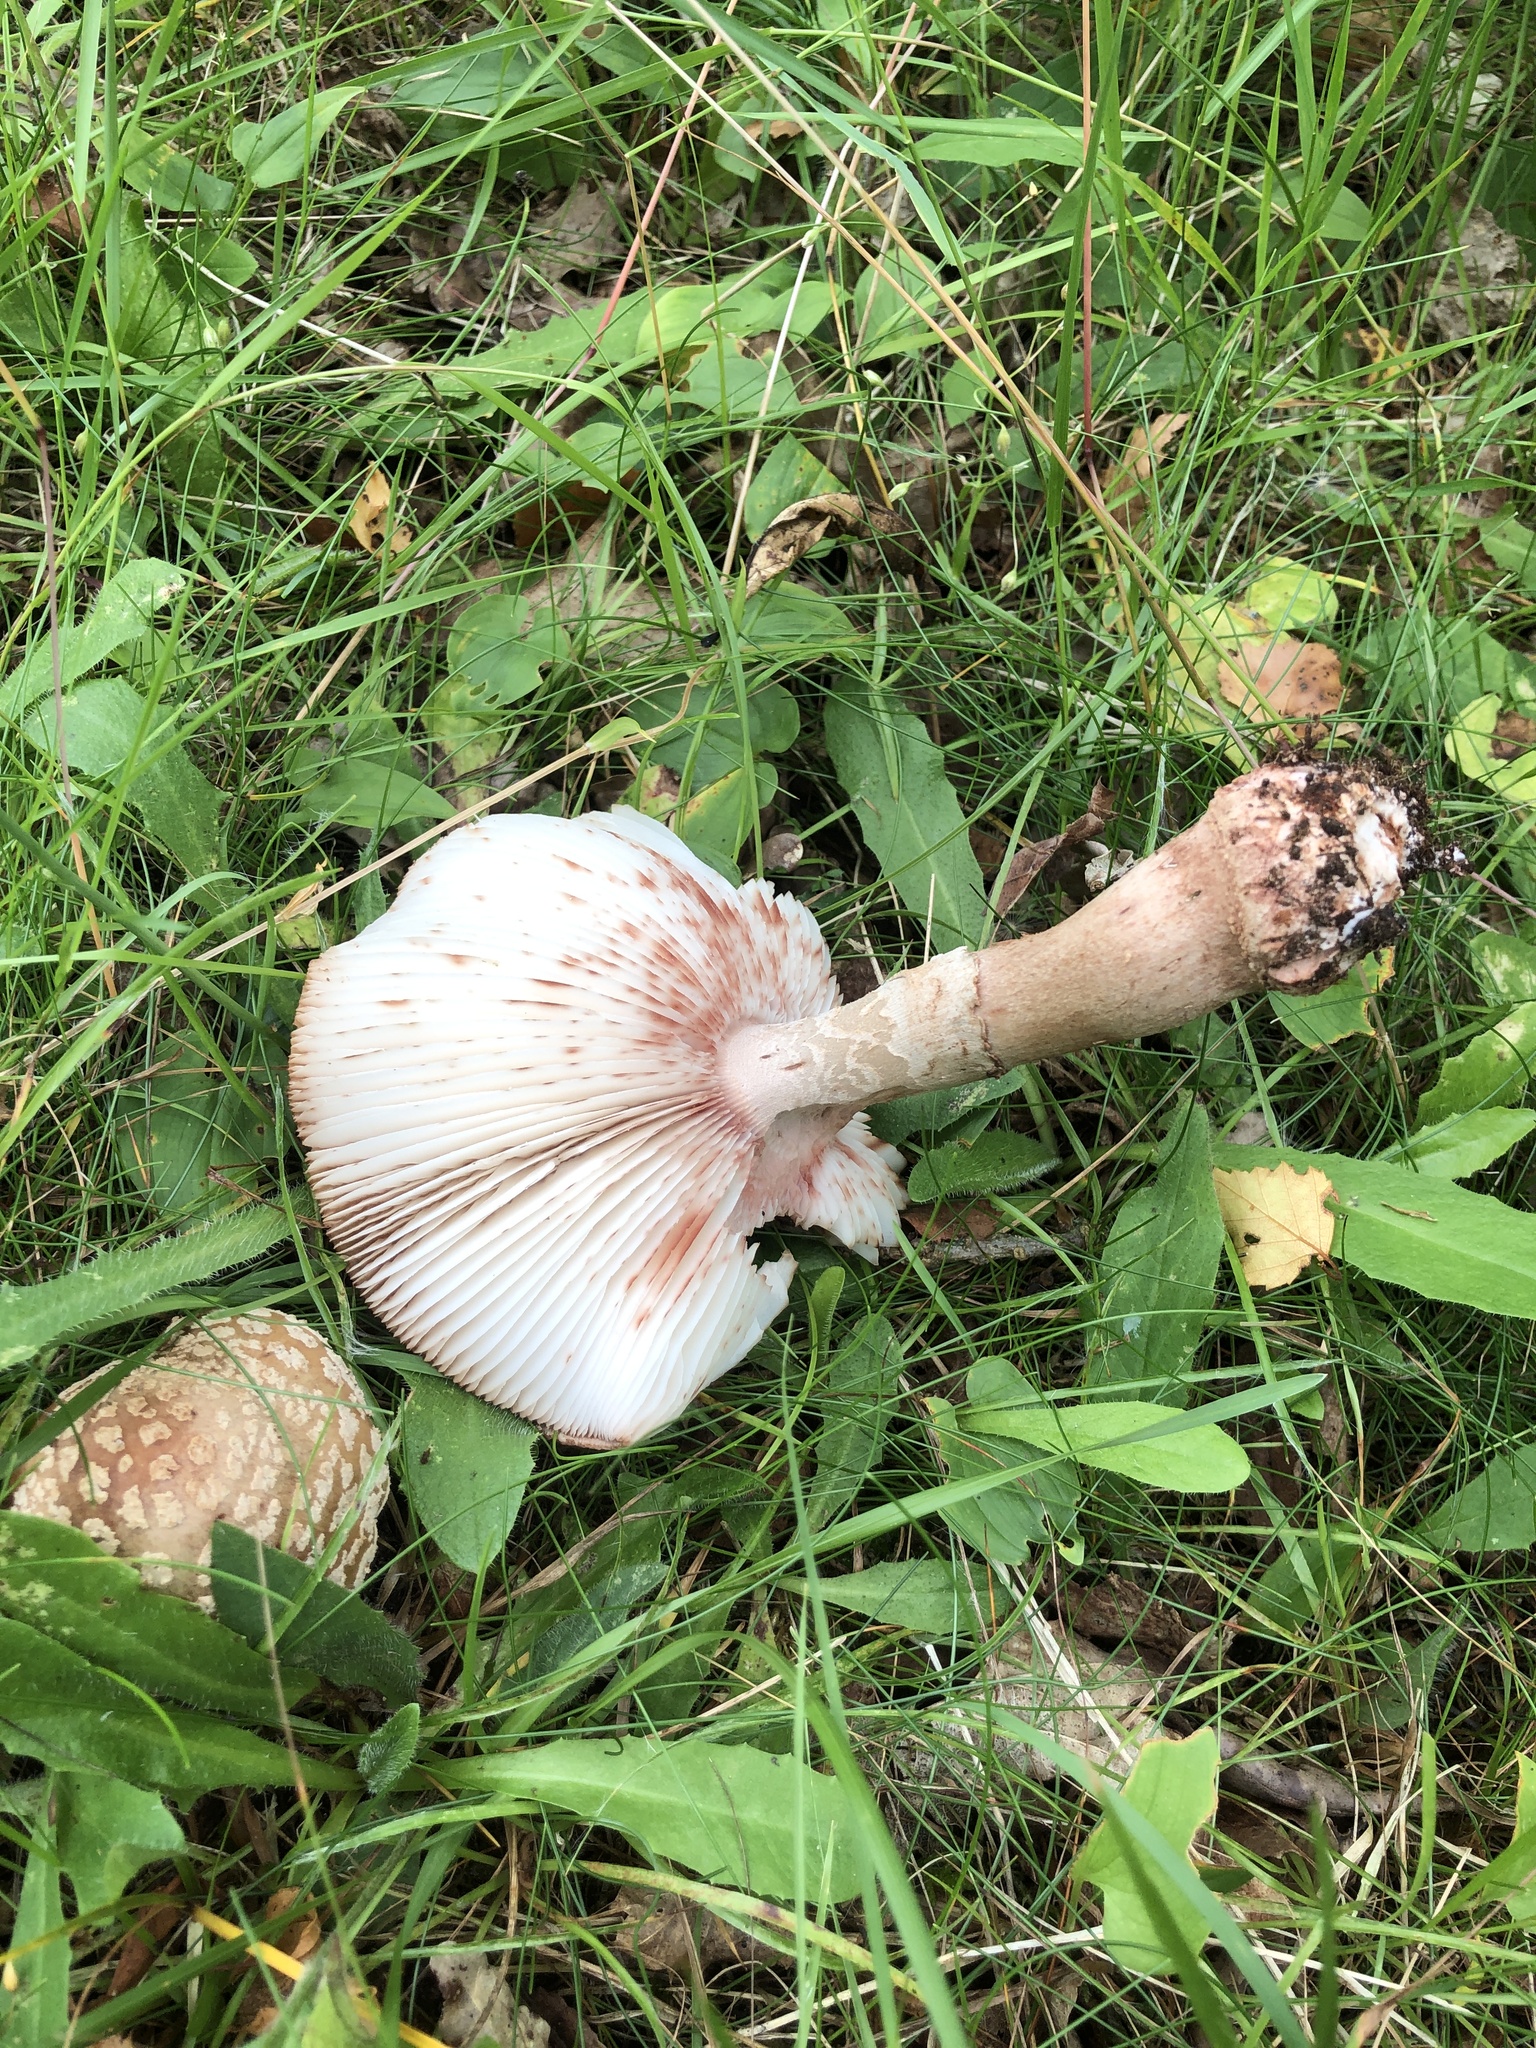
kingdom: Fungi
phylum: Basidiomycota
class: Agaricomycetes
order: Agaricales
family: Amanitaceae
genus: Amanita
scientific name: Amanita rubescens
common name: Blusher
